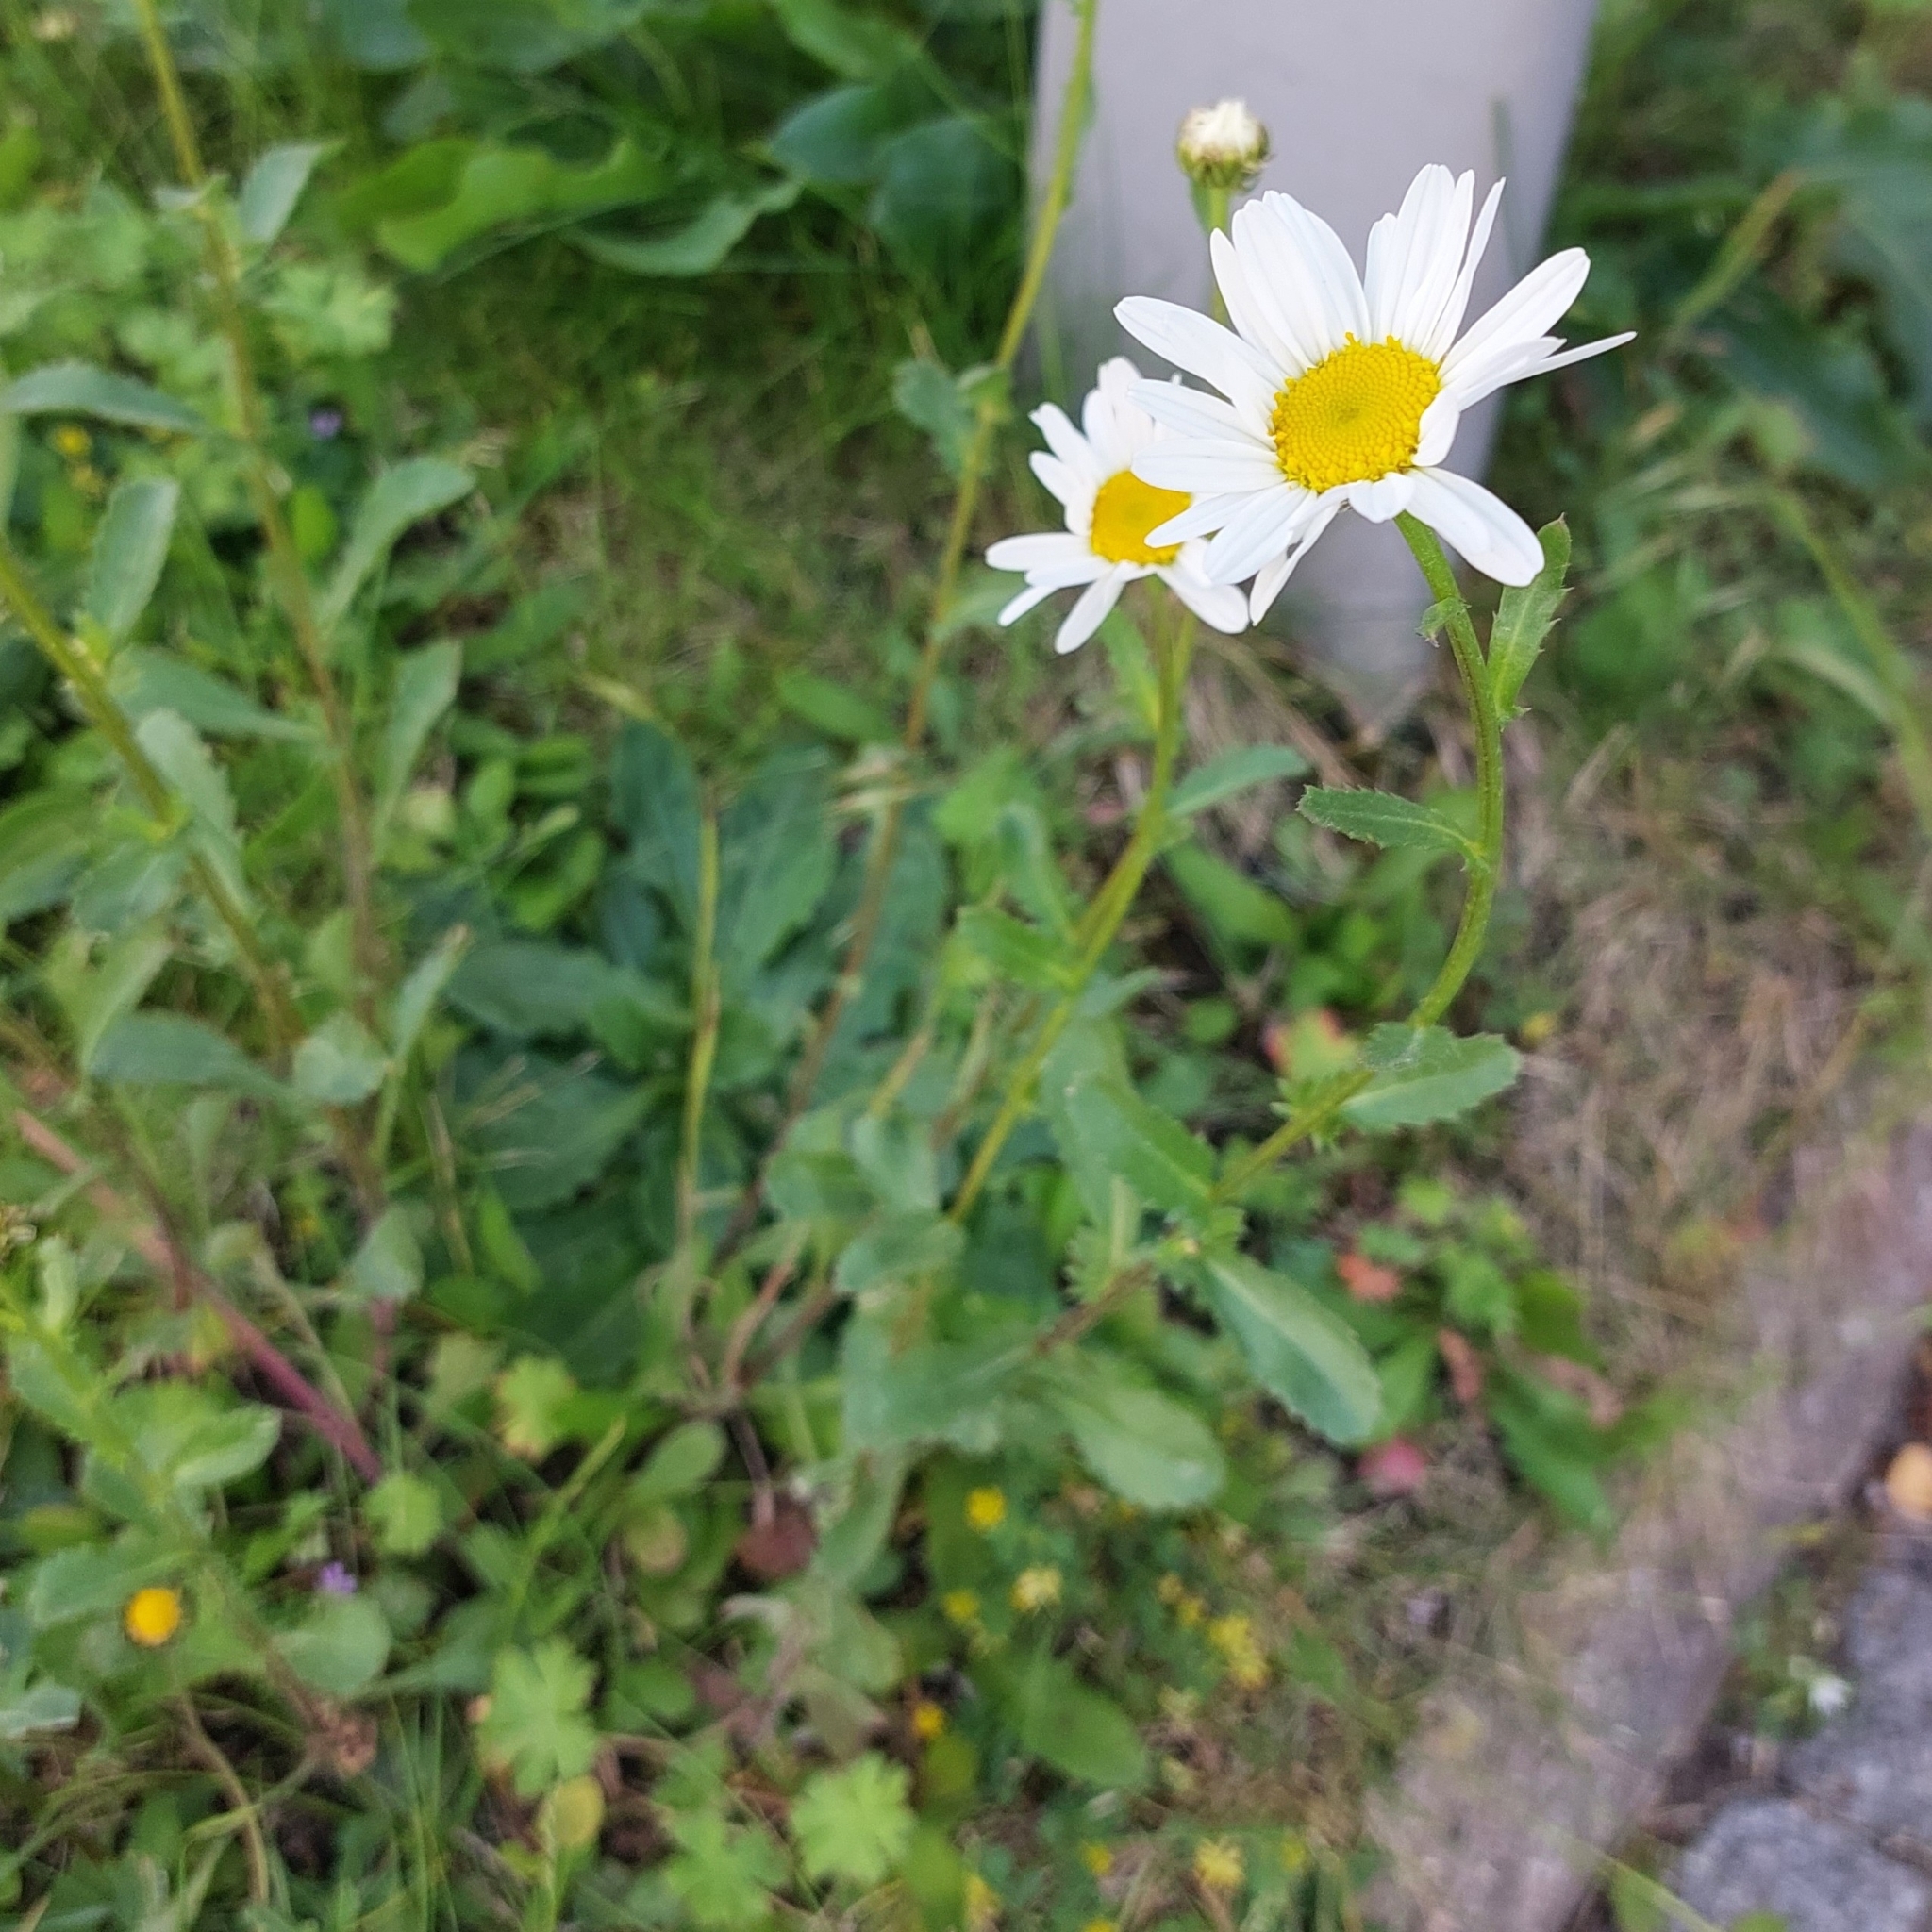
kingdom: Plantae
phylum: Tracheophyta
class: Magnoliopsida
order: Asterales
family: Asteraceae
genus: Leucanthemum
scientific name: Leucanthemum vulgare
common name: Oxeye daisy
